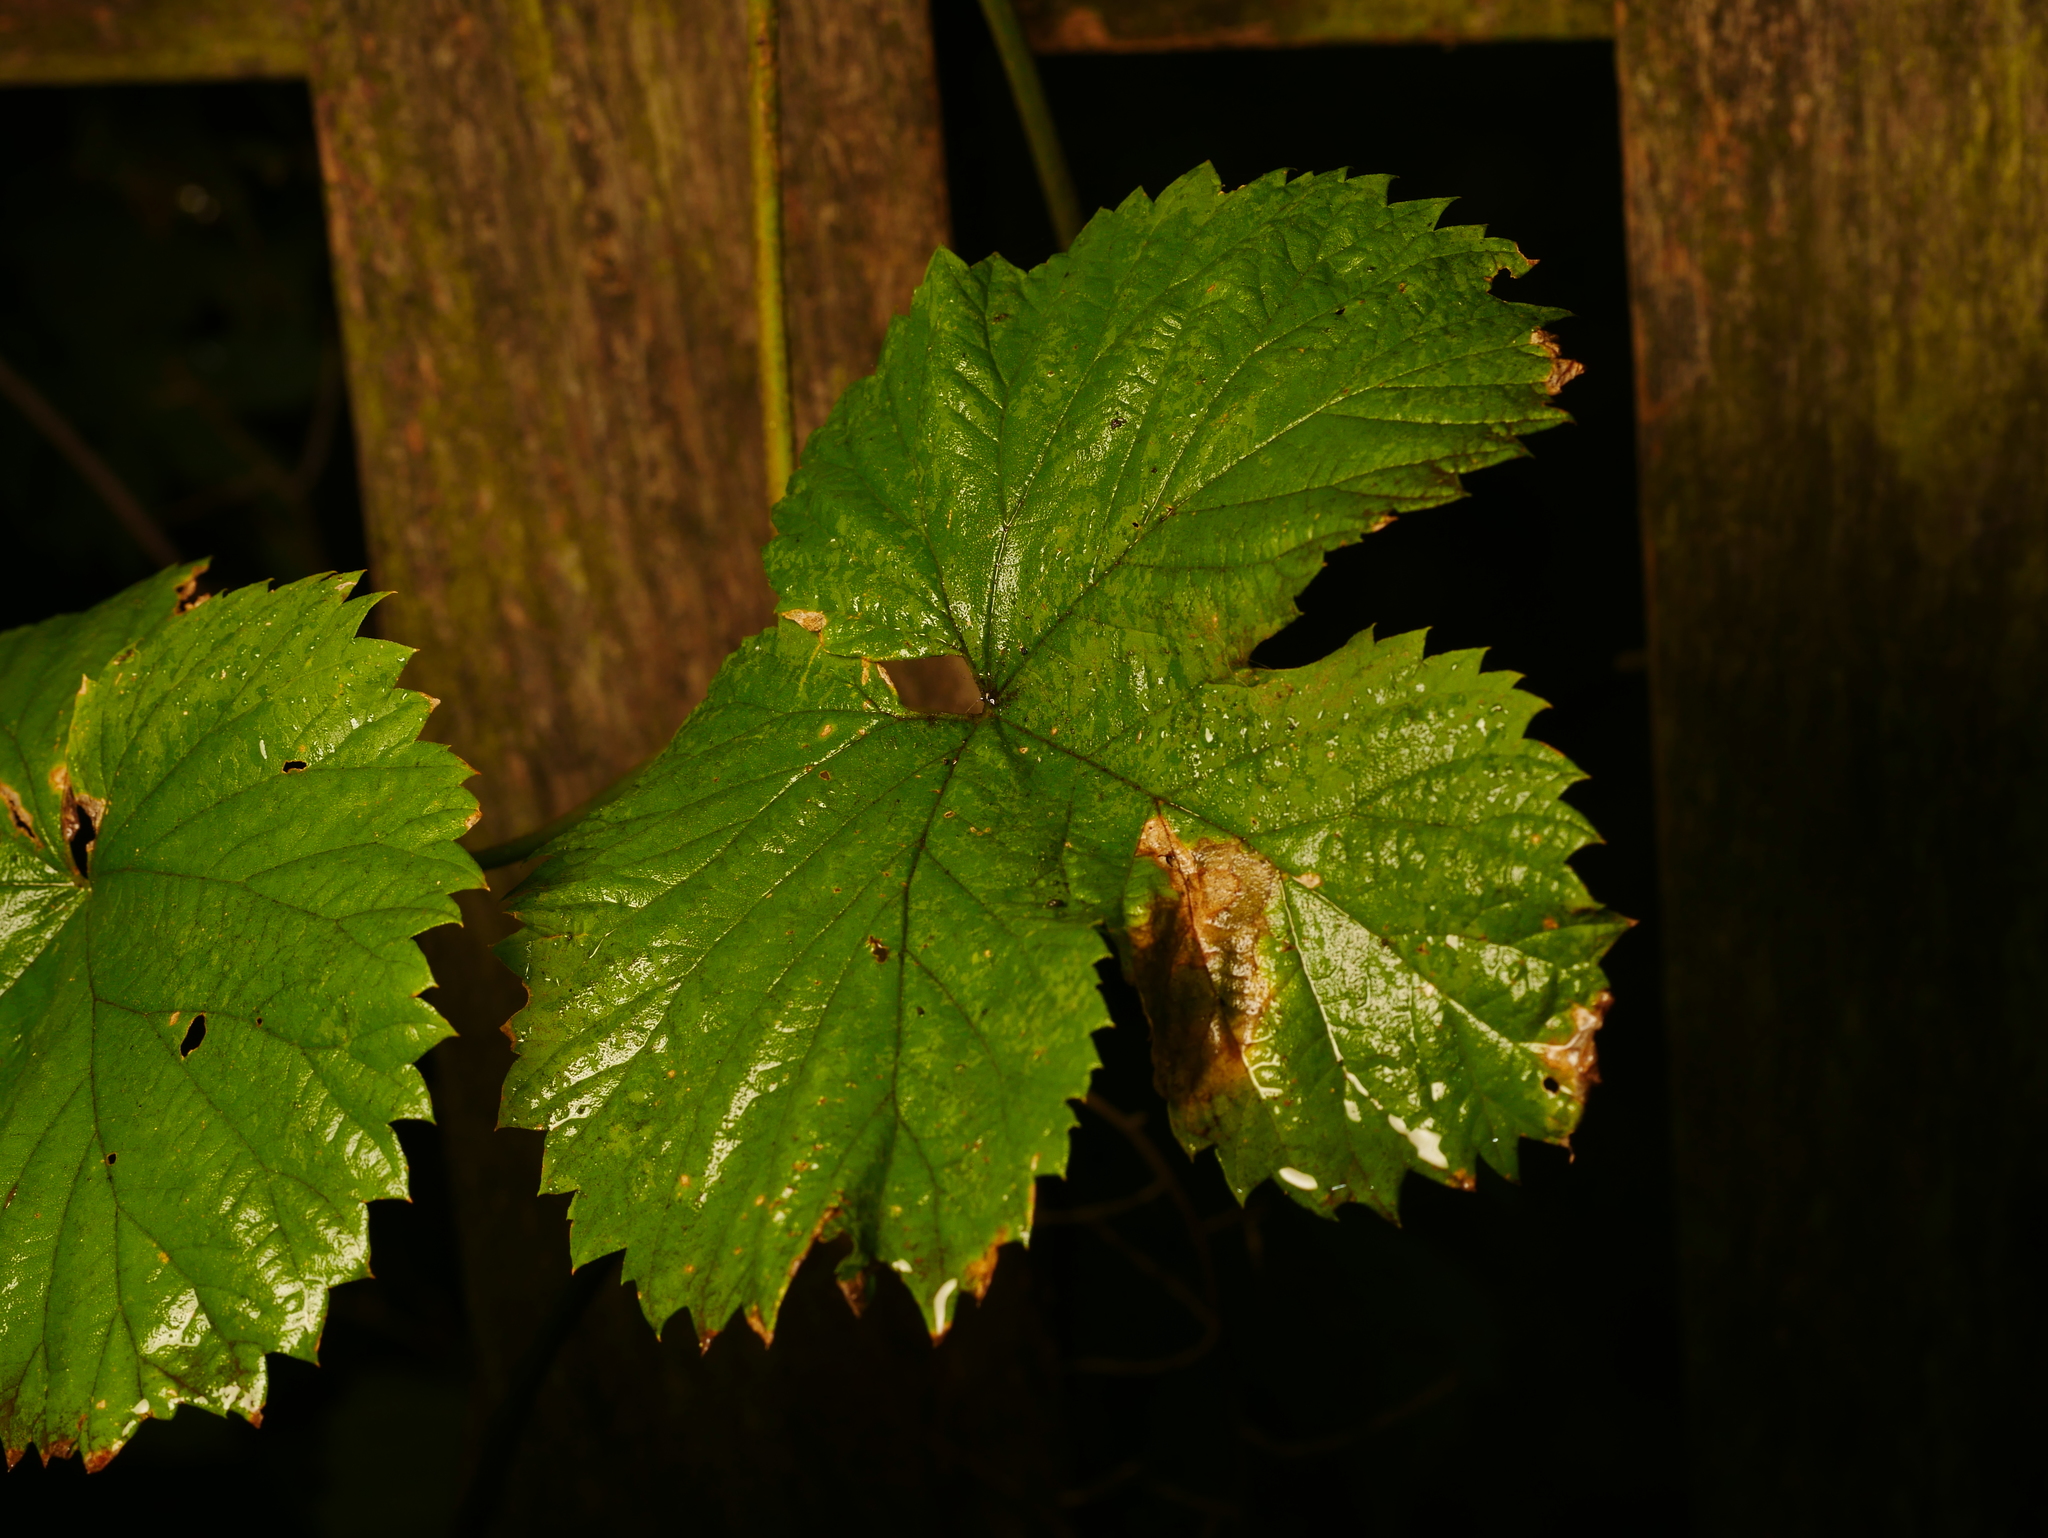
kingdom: Plantae
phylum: Tracheophyta
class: Magnoliopsida
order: Rosales
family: Cannabaceae
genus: Humulus
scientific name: Humulus lupulus
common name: Hop
